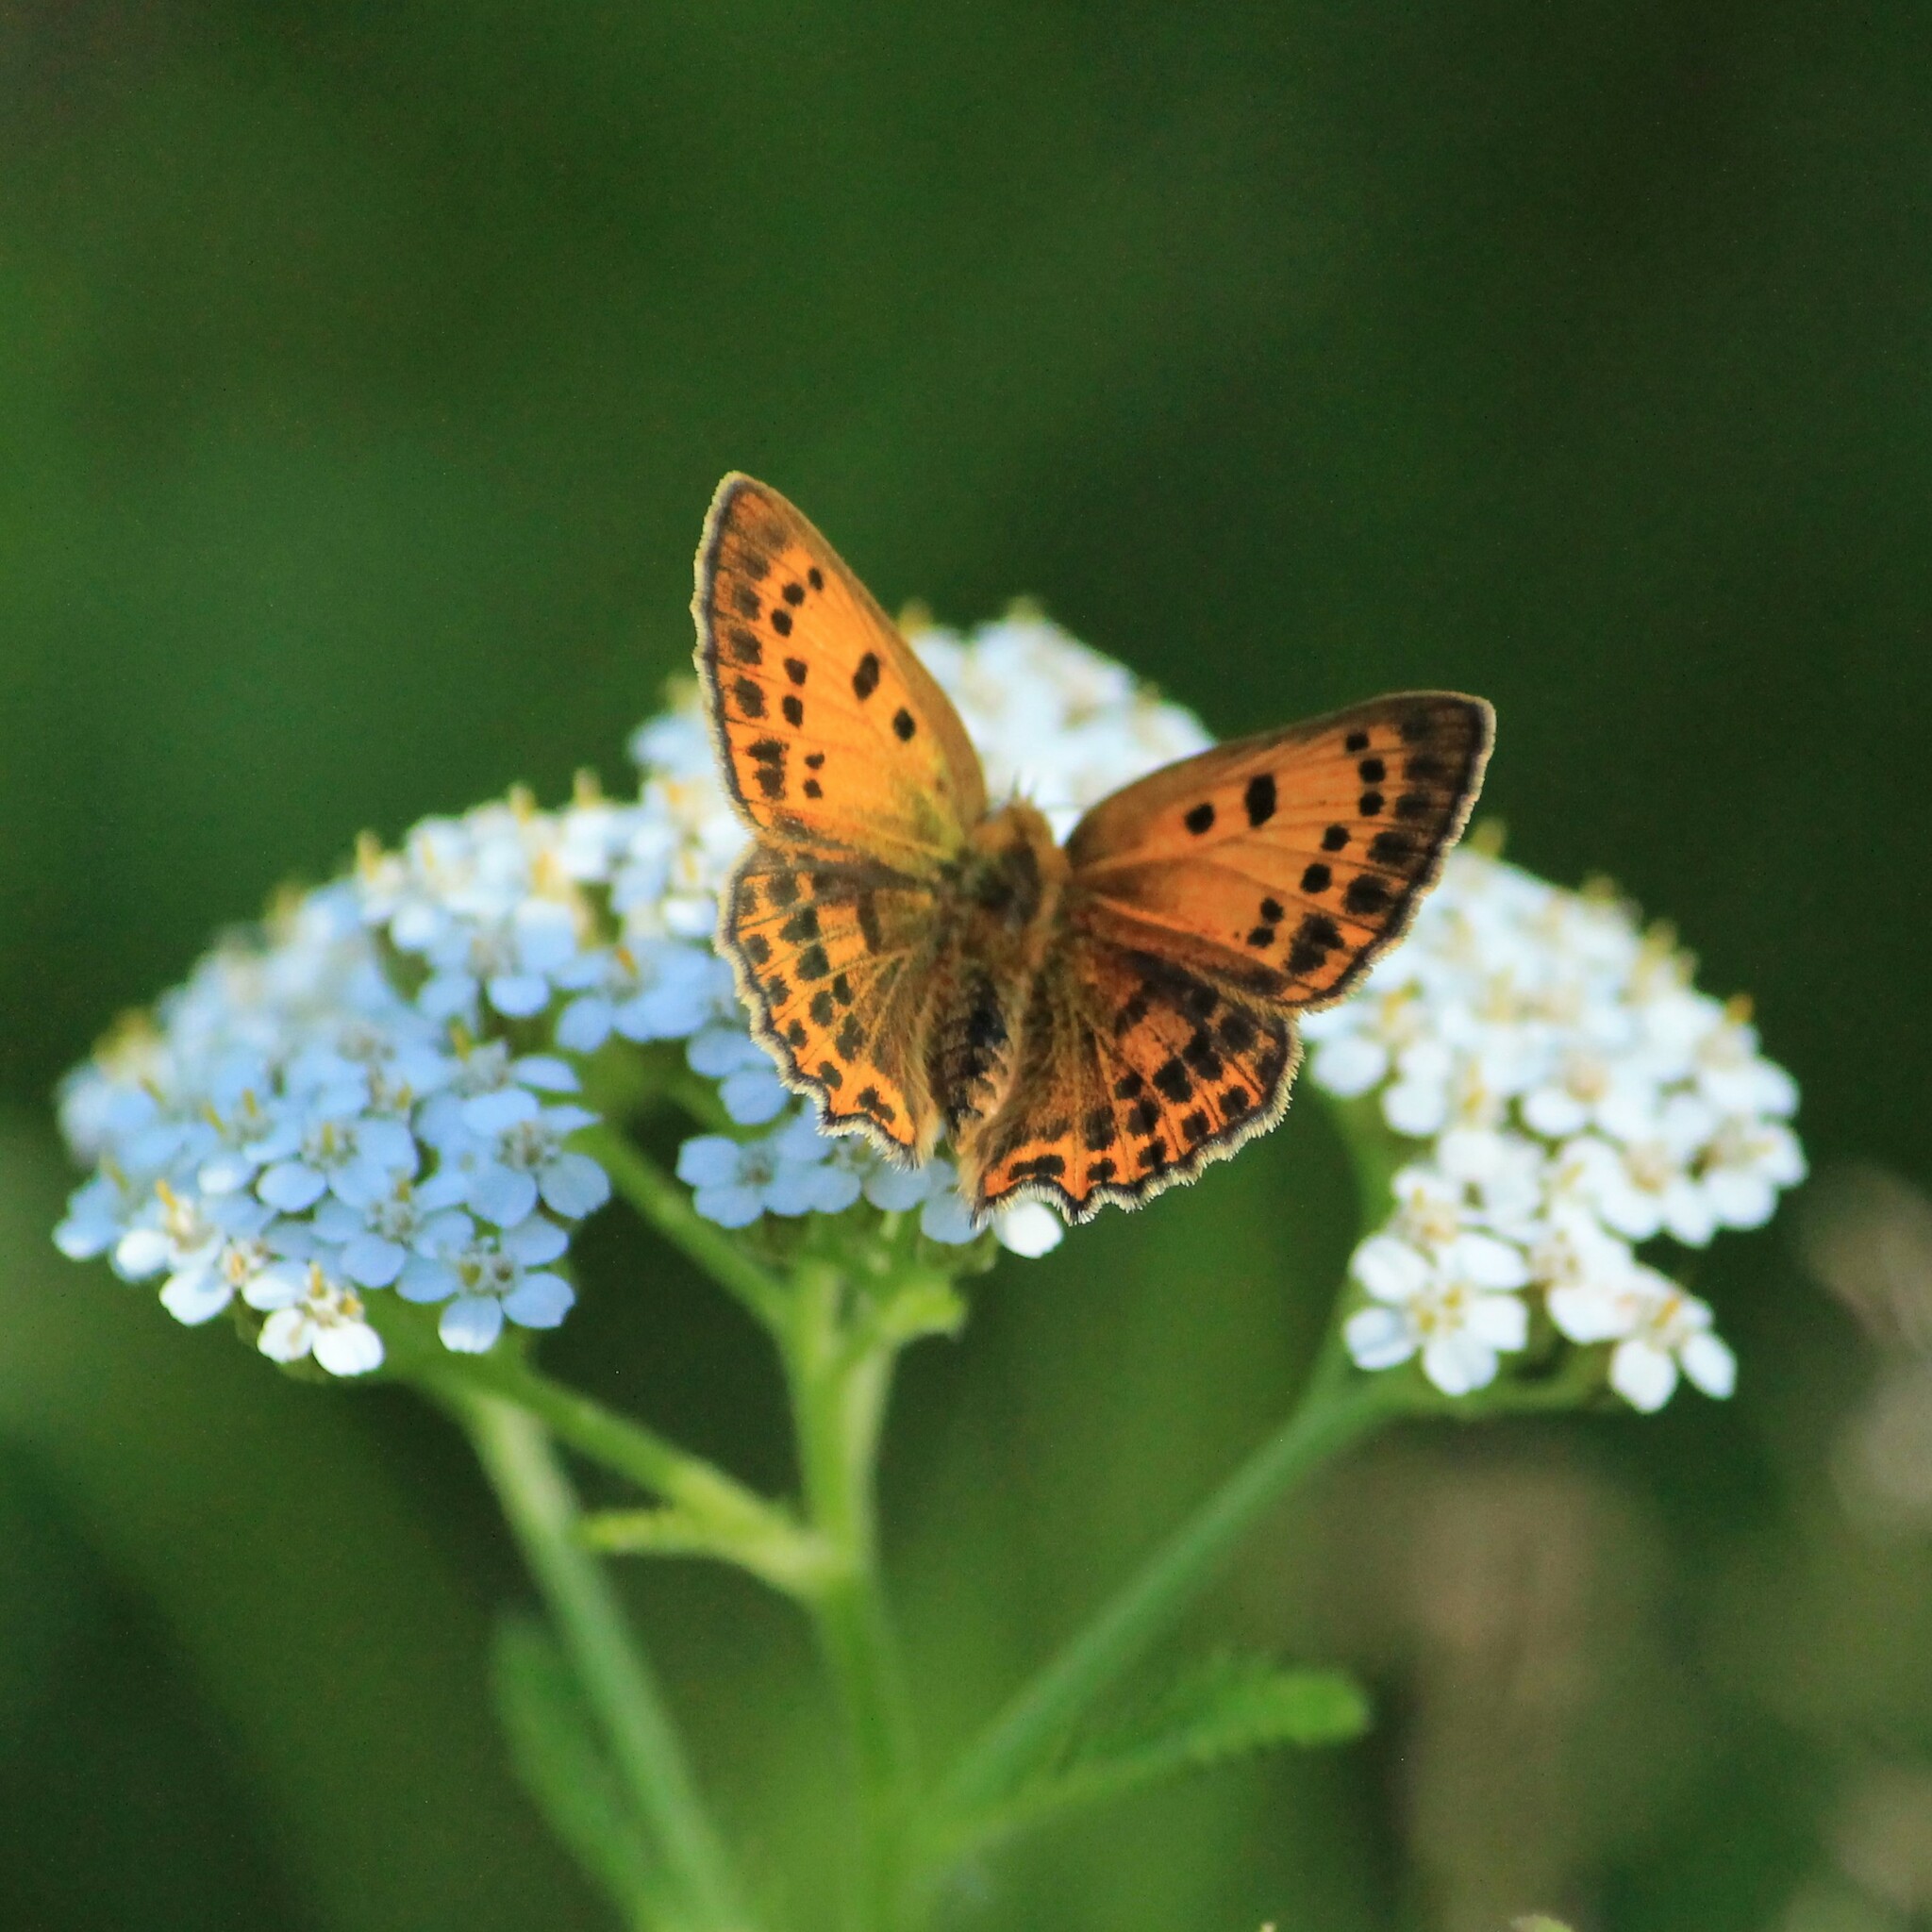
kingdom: Animalia
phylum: Arthropoda
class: Insecta
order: Lepidoptera
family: Lycaenidae
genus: Lycaena
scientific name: Lycaena virgaureae
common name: Scarce copper
